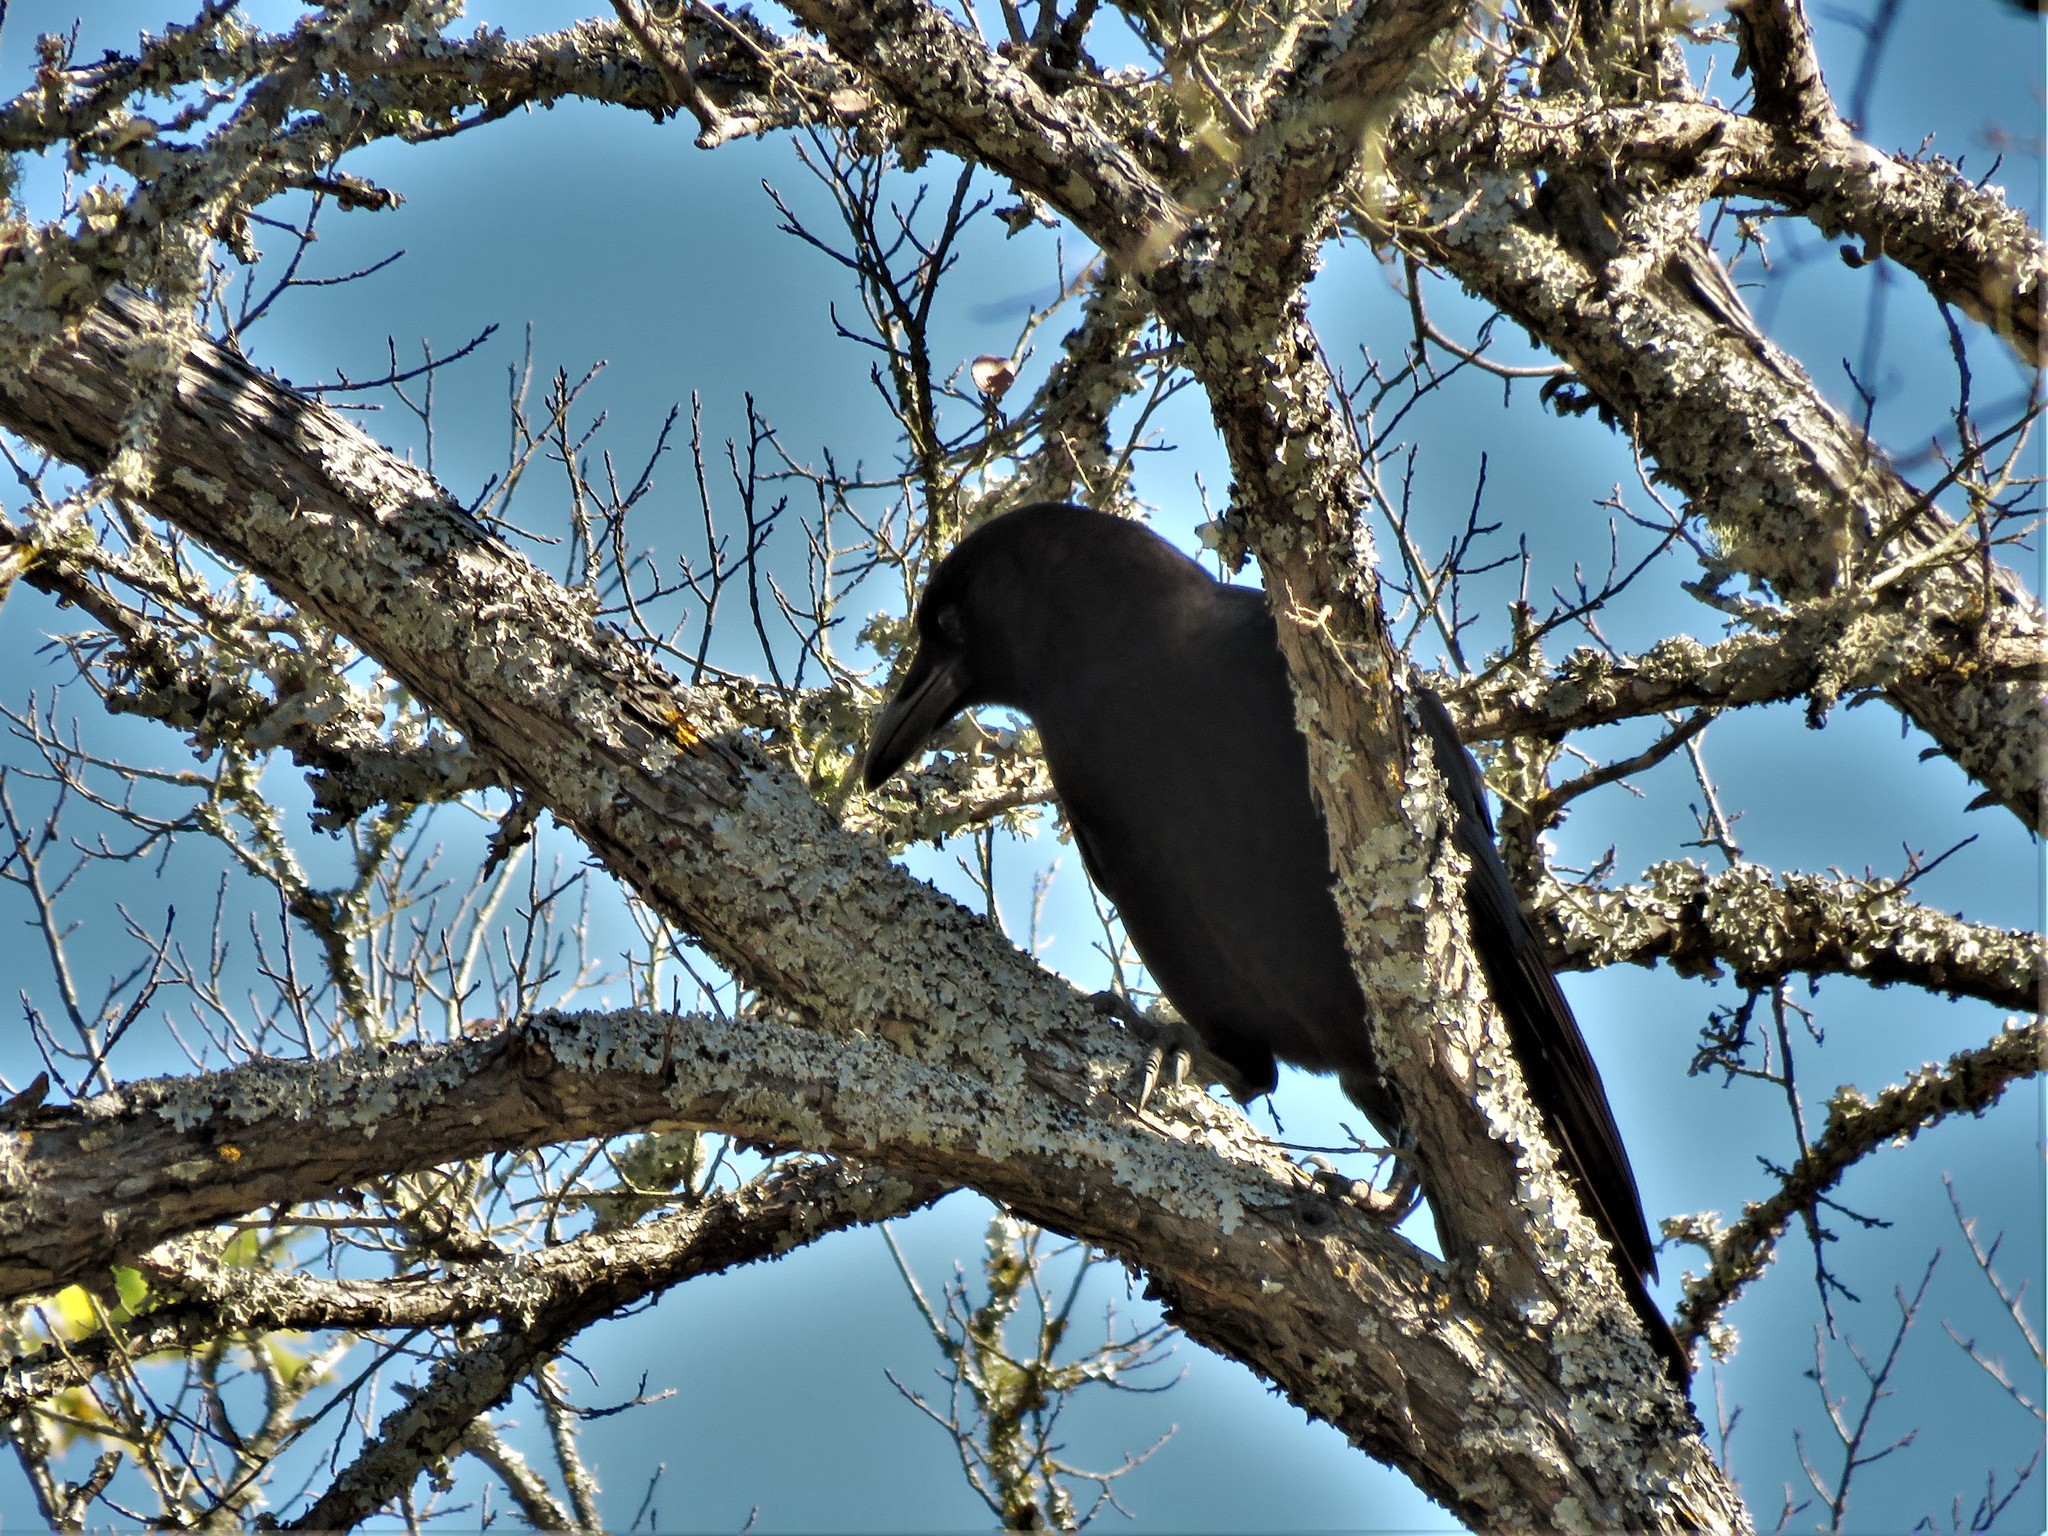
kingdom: Animalia
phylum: Chordata
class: Aves
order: Passeriformes
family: Corvidae
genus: Corvus
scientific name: Corvus brachyrhynchos
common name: American crow
